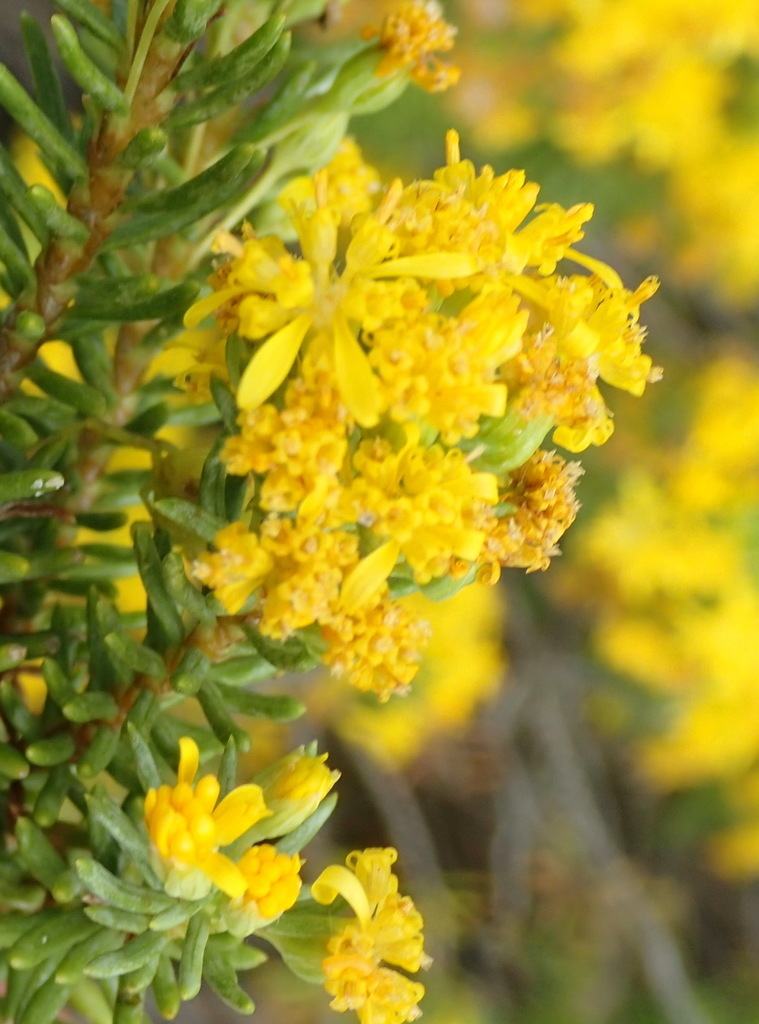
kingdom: Plantae
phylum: Tracheophyta
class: Magnoliopsida
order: Asterales
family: Asteraceae
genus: Euryops
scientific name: Euryops annae
